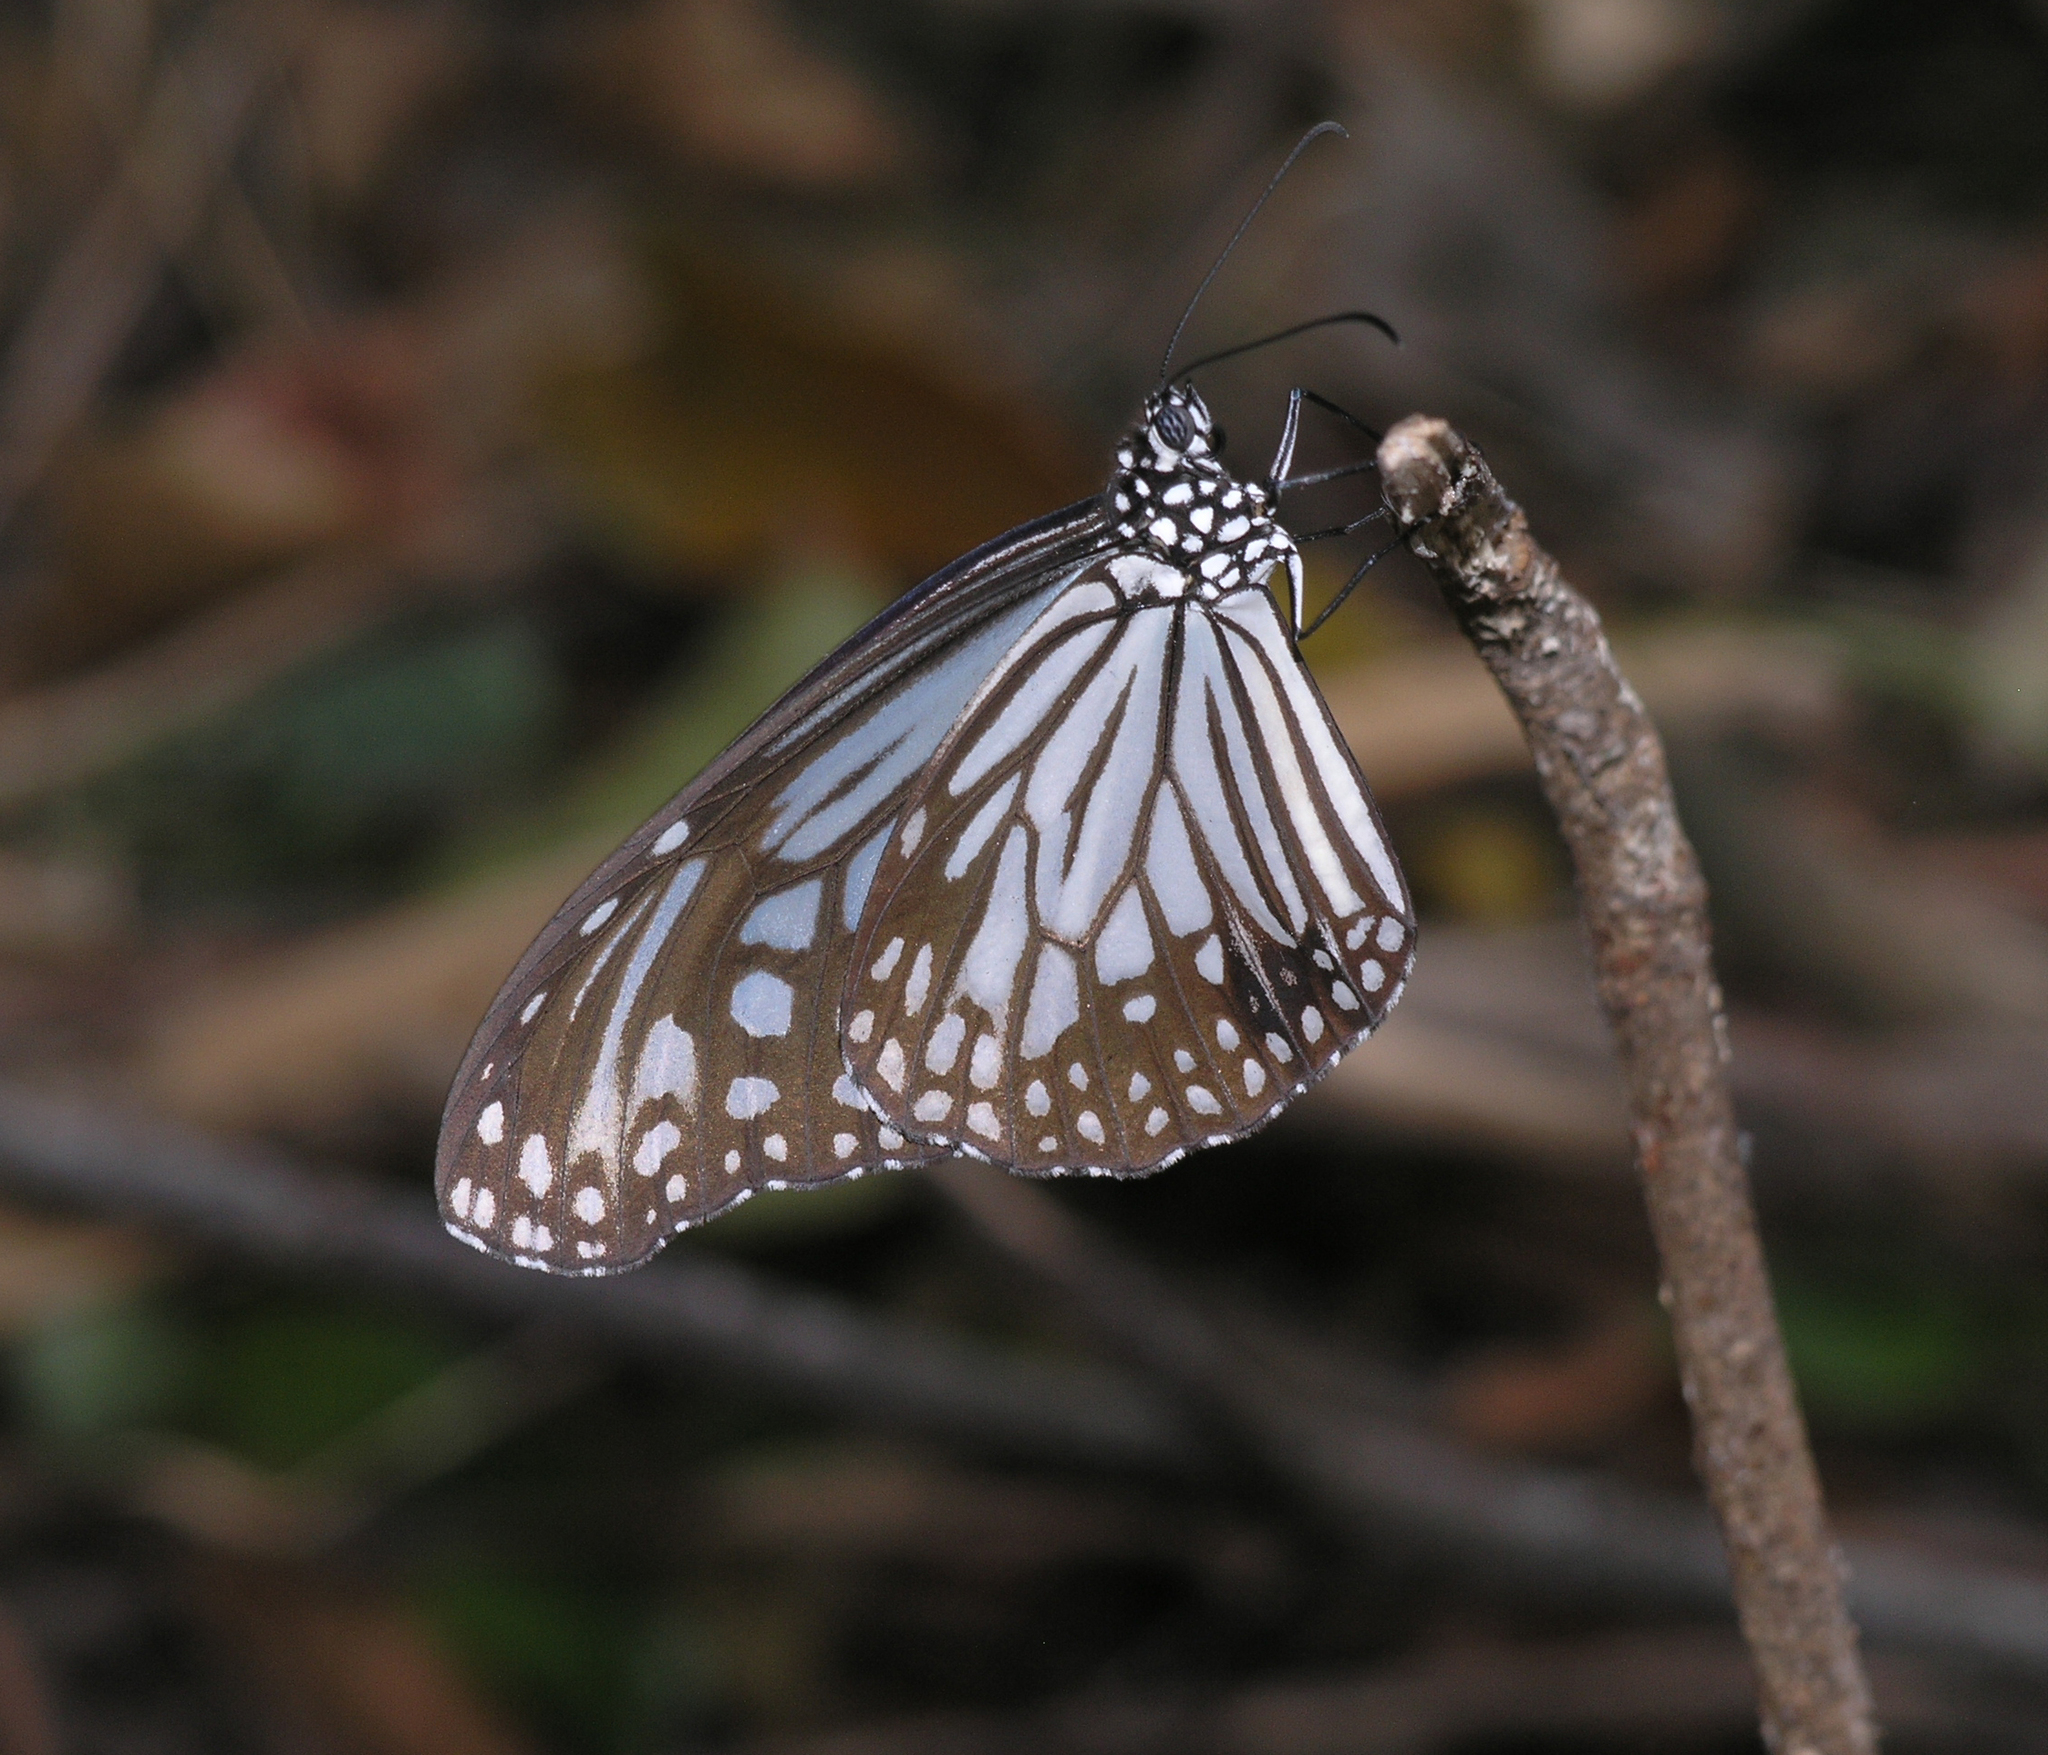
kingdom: Animalia
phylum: Arthropoda
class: Insecta
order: Lepidoptera
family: Nymphalidae
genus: Parantica
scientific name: Parantica aglea
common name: Glassy tiger
